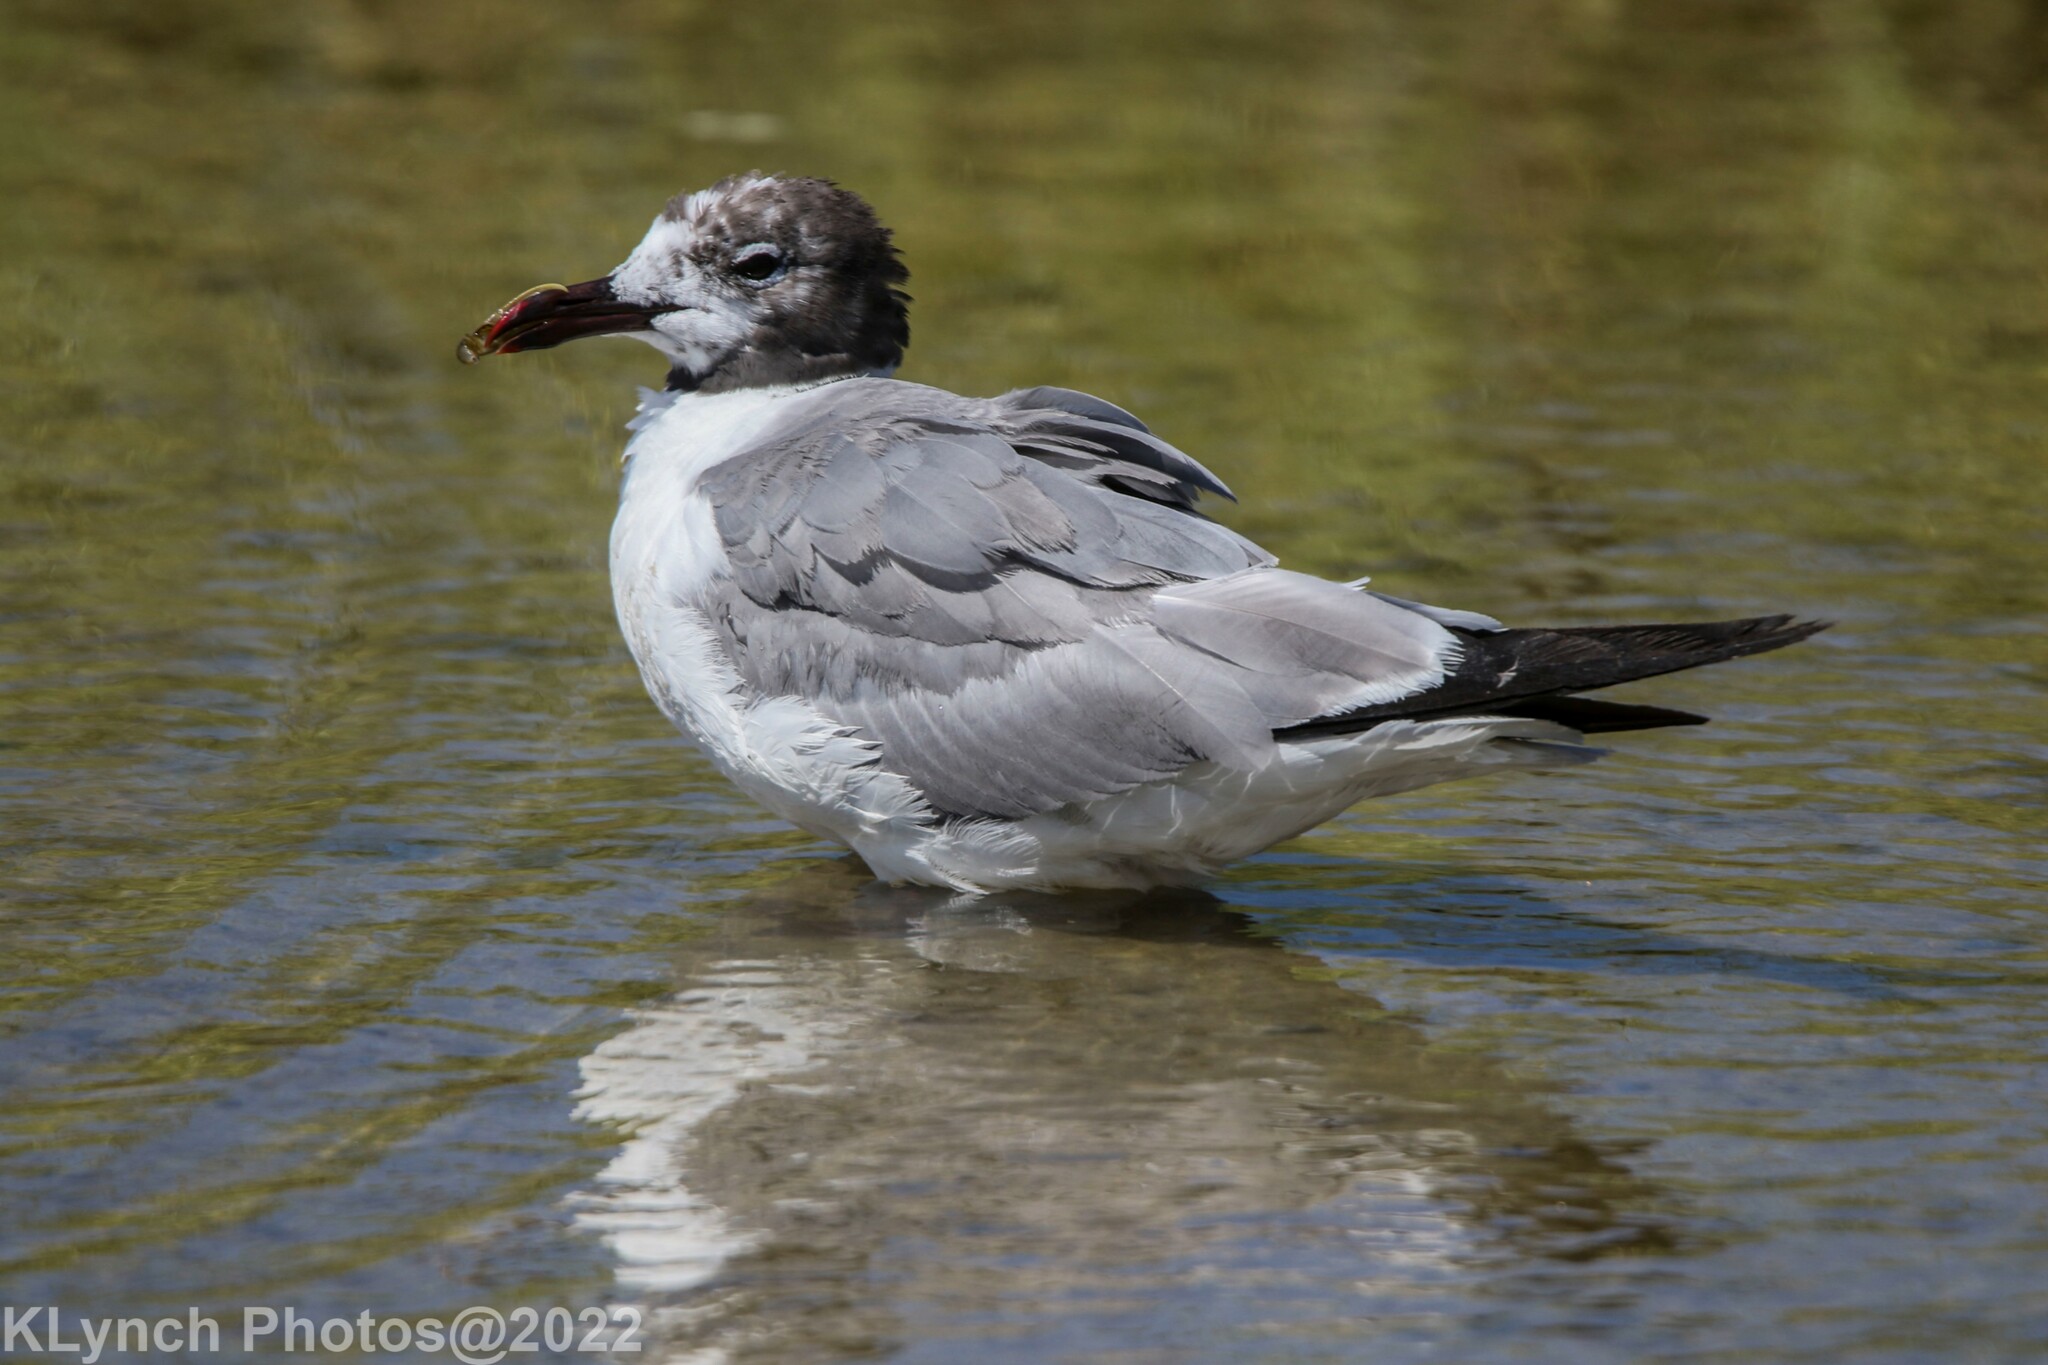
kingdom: Animalia
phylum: Chordata
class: Aves
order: Charadriiformes
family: Laridae
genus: Leucophaeus
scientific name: Leucophaeus atricilla
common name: Laughing gull
